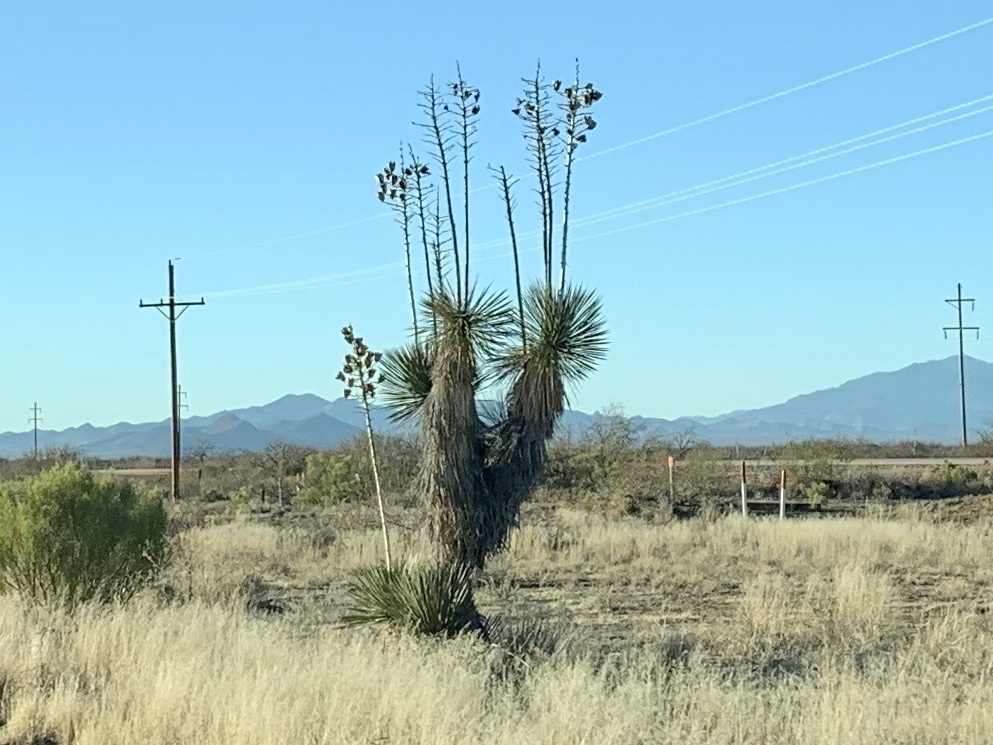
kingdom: Plantae
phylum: Tracheophyta
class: Liliopsida
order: Asparagales
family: Asparagaceae
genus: Yucca
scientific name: Yucca elata
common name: Palmella
